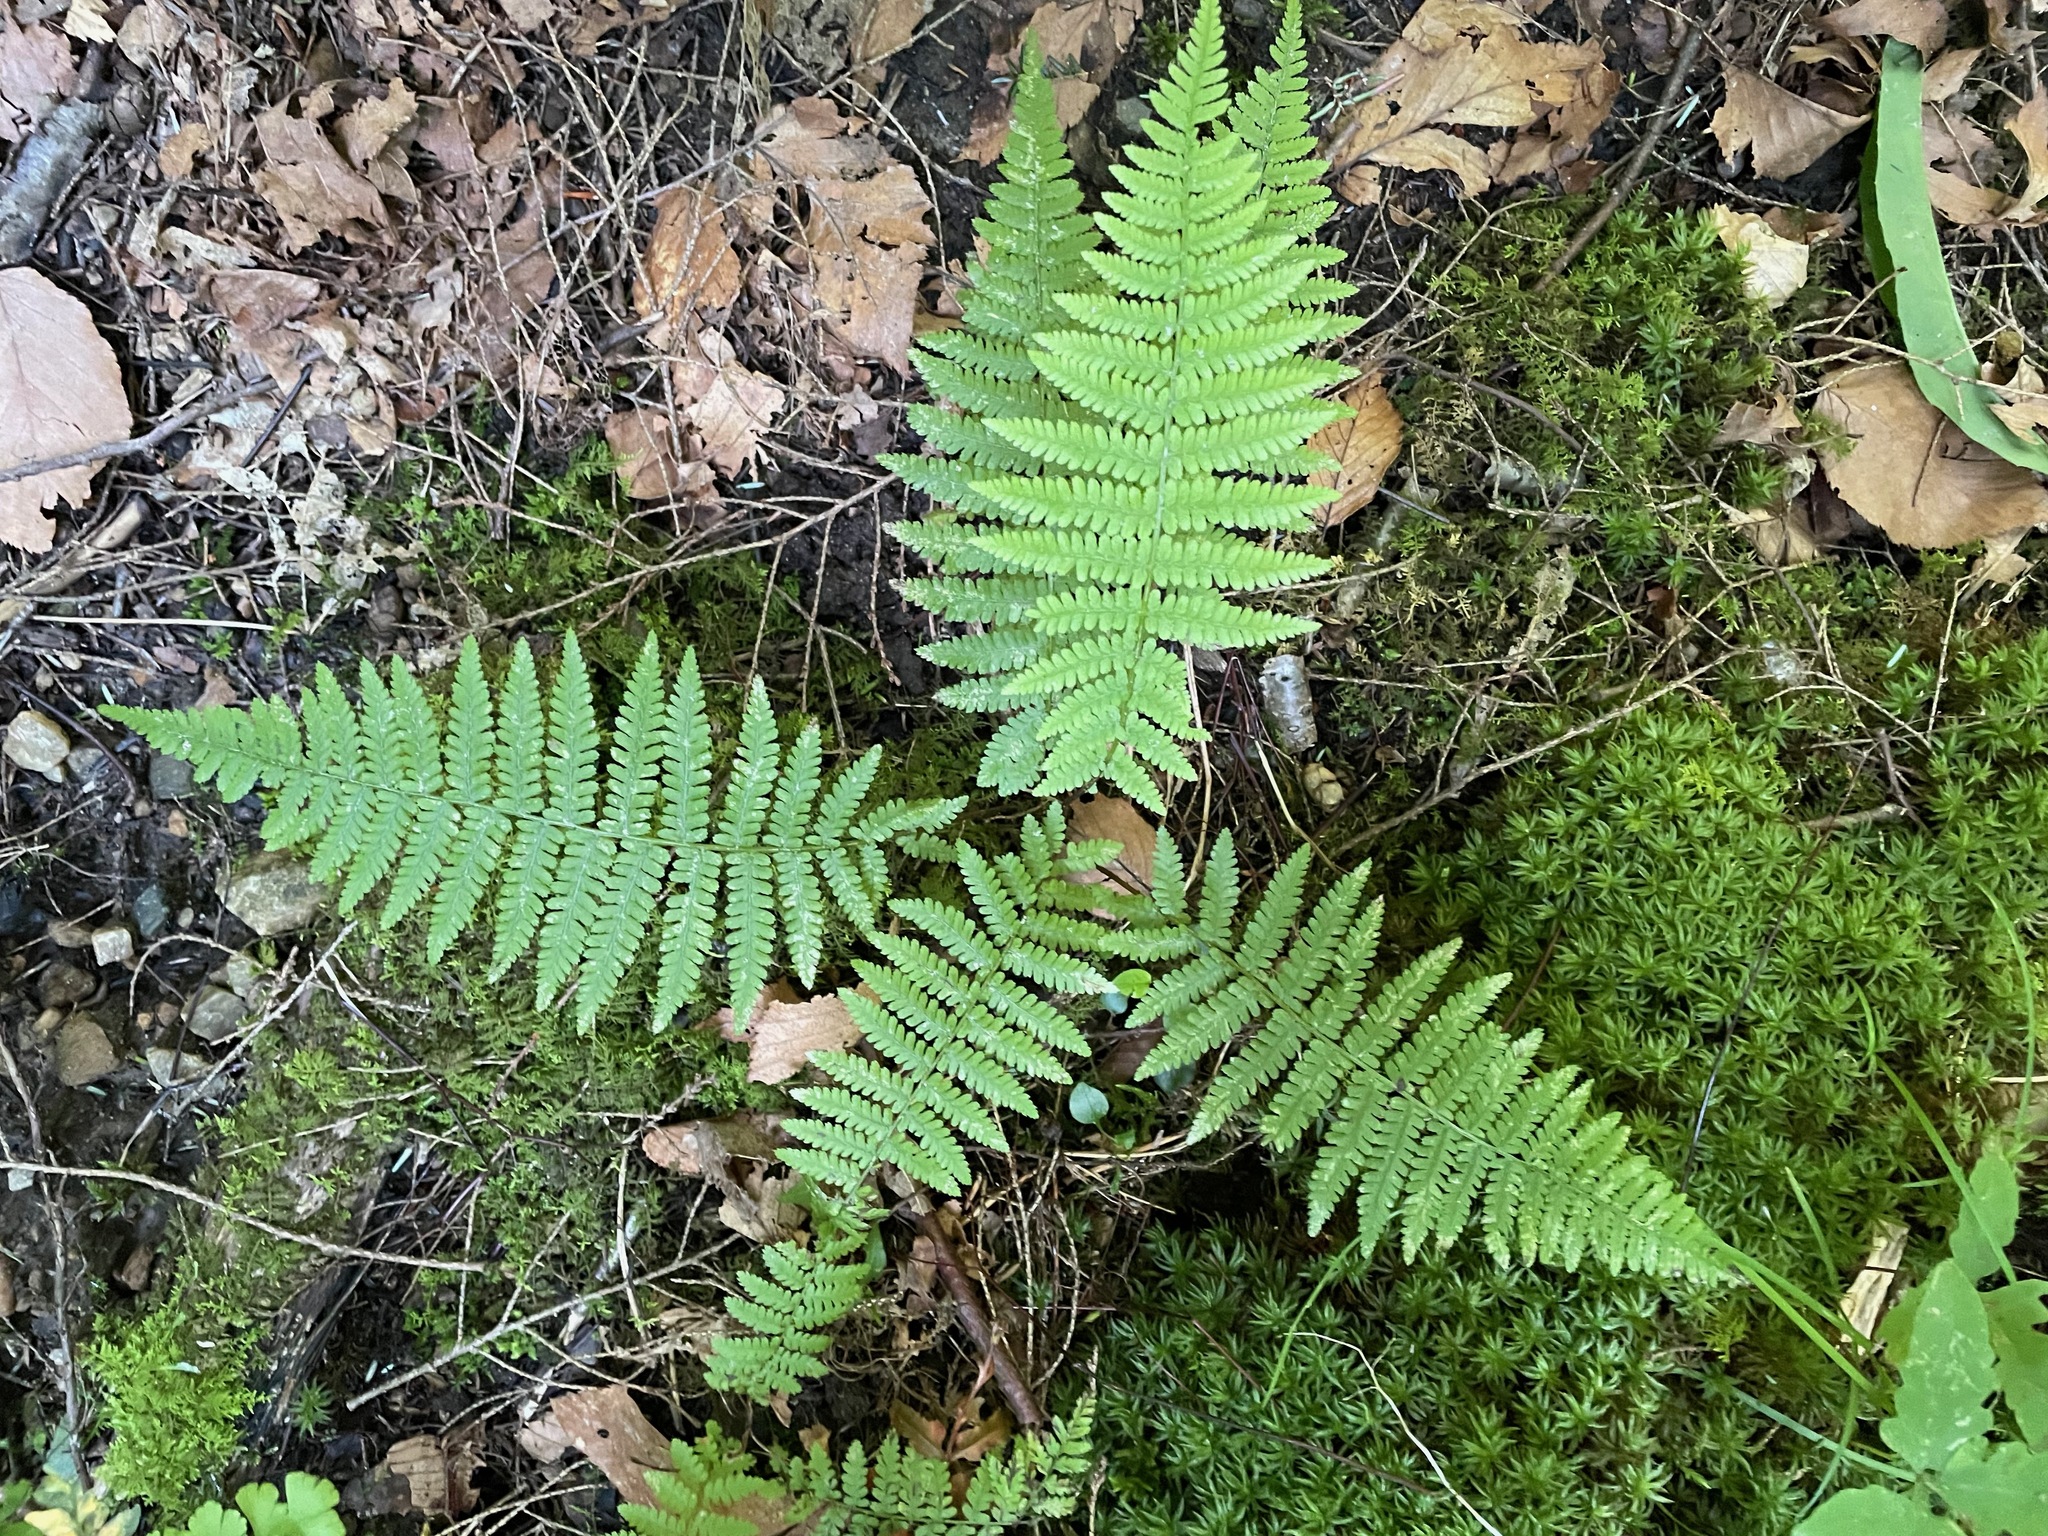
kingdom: Plantae
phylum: Tracheophyta
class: Polypodiopsida
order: Polypodiales
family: Thelypteridaceae
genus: Amauropelta
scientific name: Amauropelta noveboracensis
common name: New york fern
